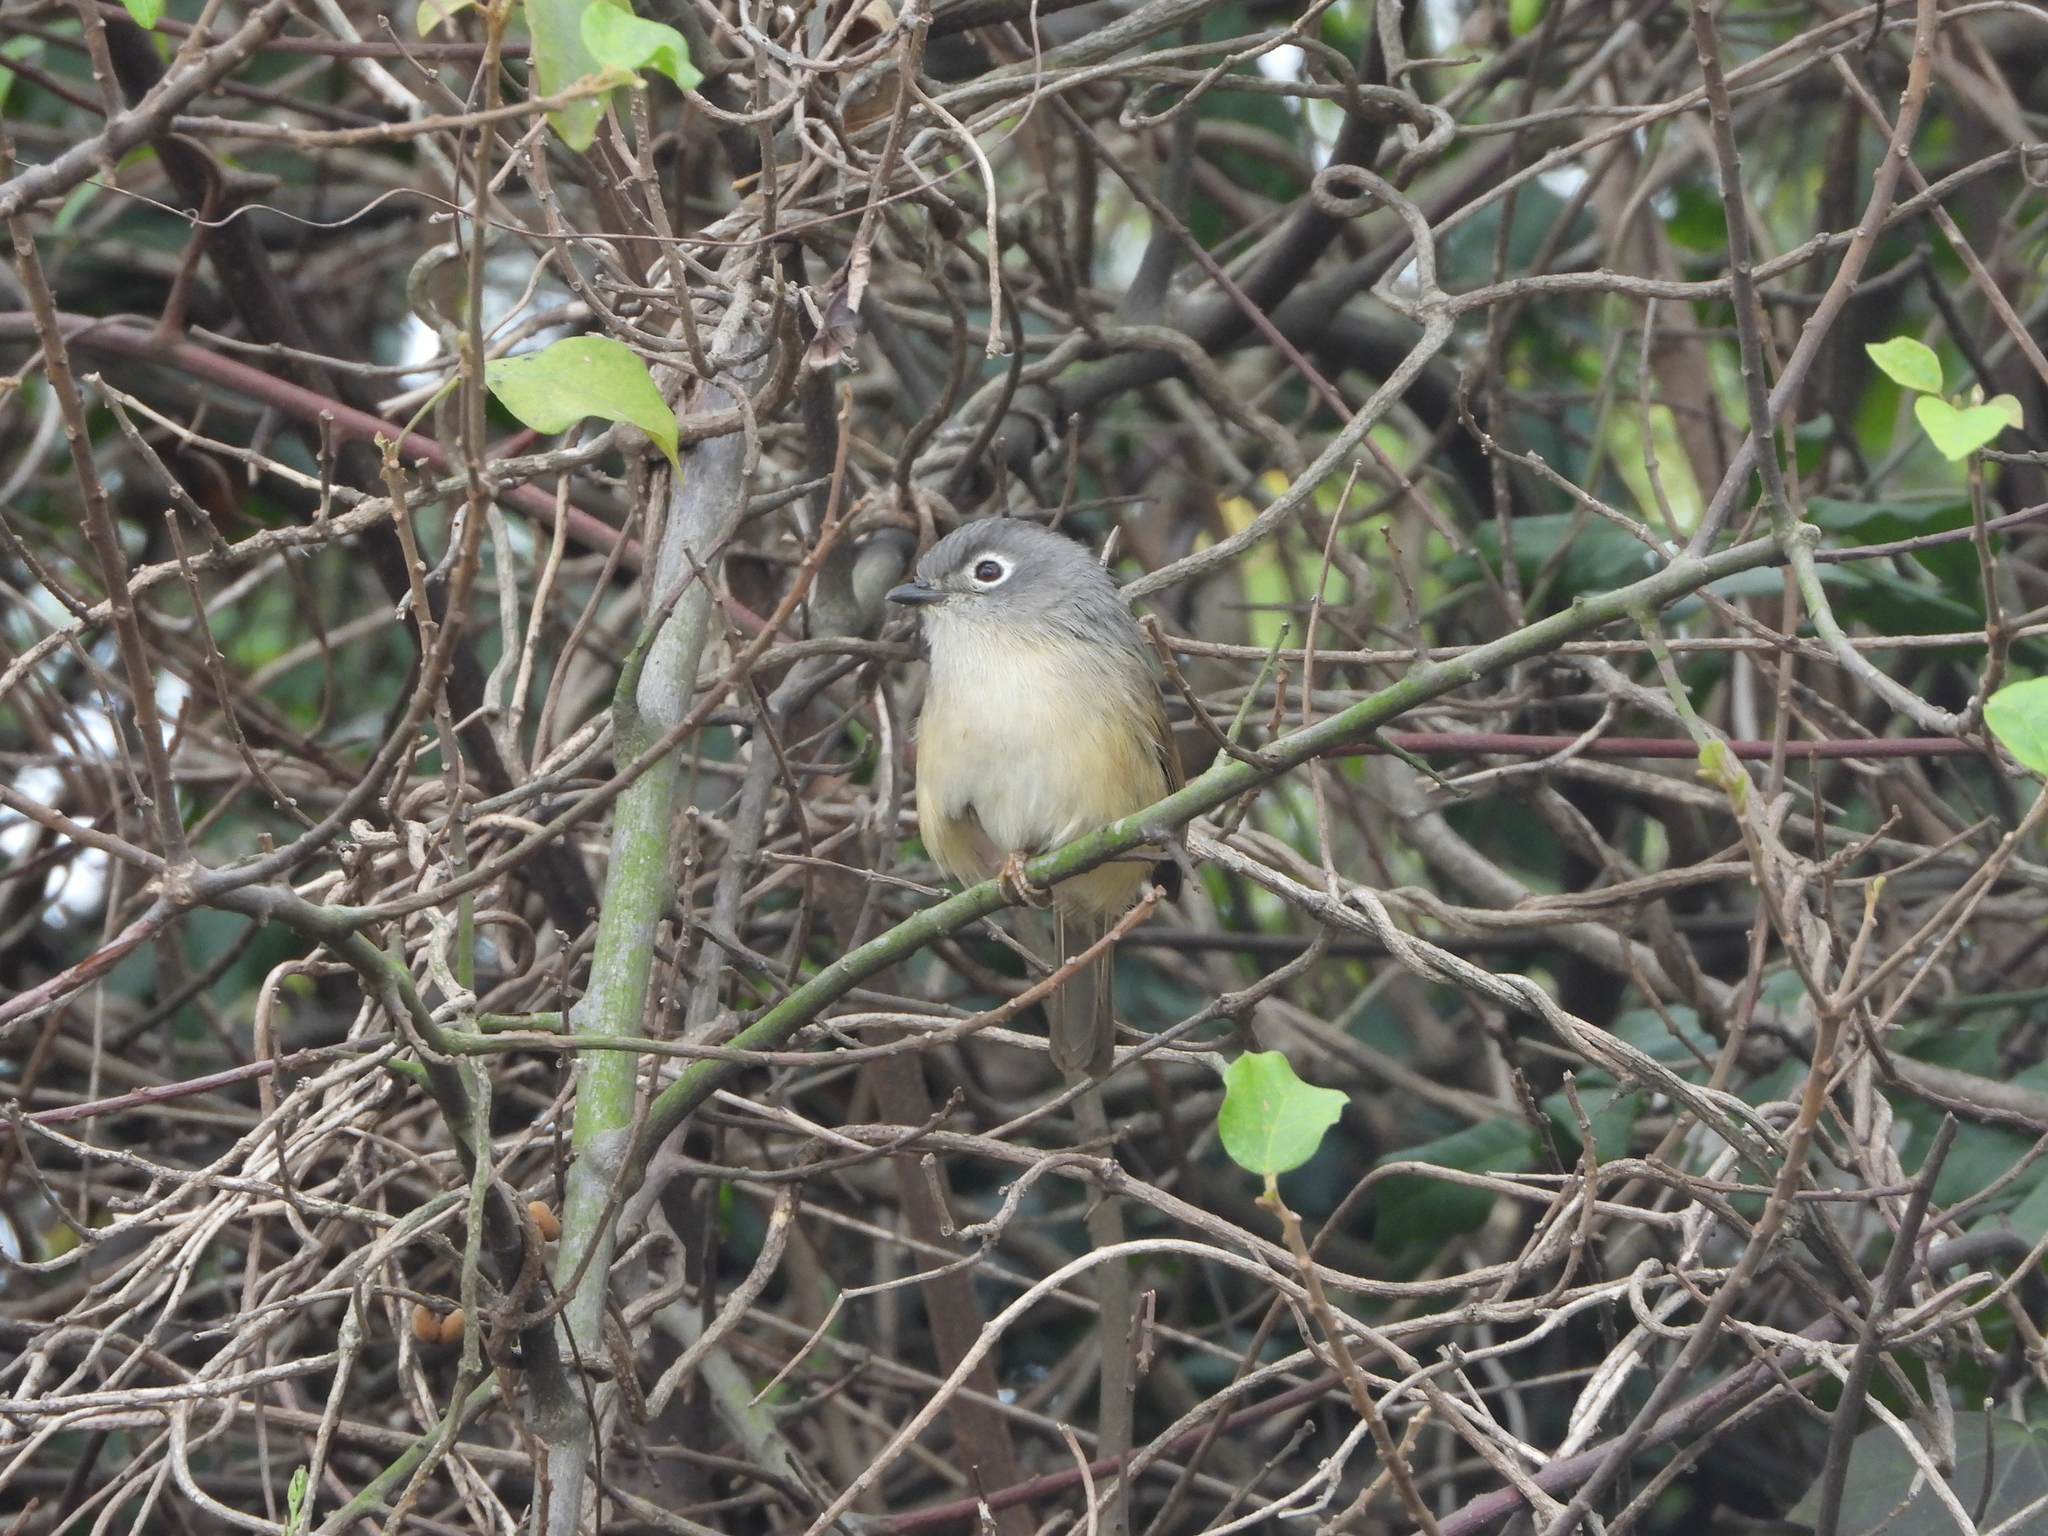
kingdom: Animalia
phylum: Chordata
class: Aves
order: Passeriformes
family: Pellorneidae
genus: Alcippe
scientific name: Alcippe morrisonia
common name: Grey-cheeked fulvetta
